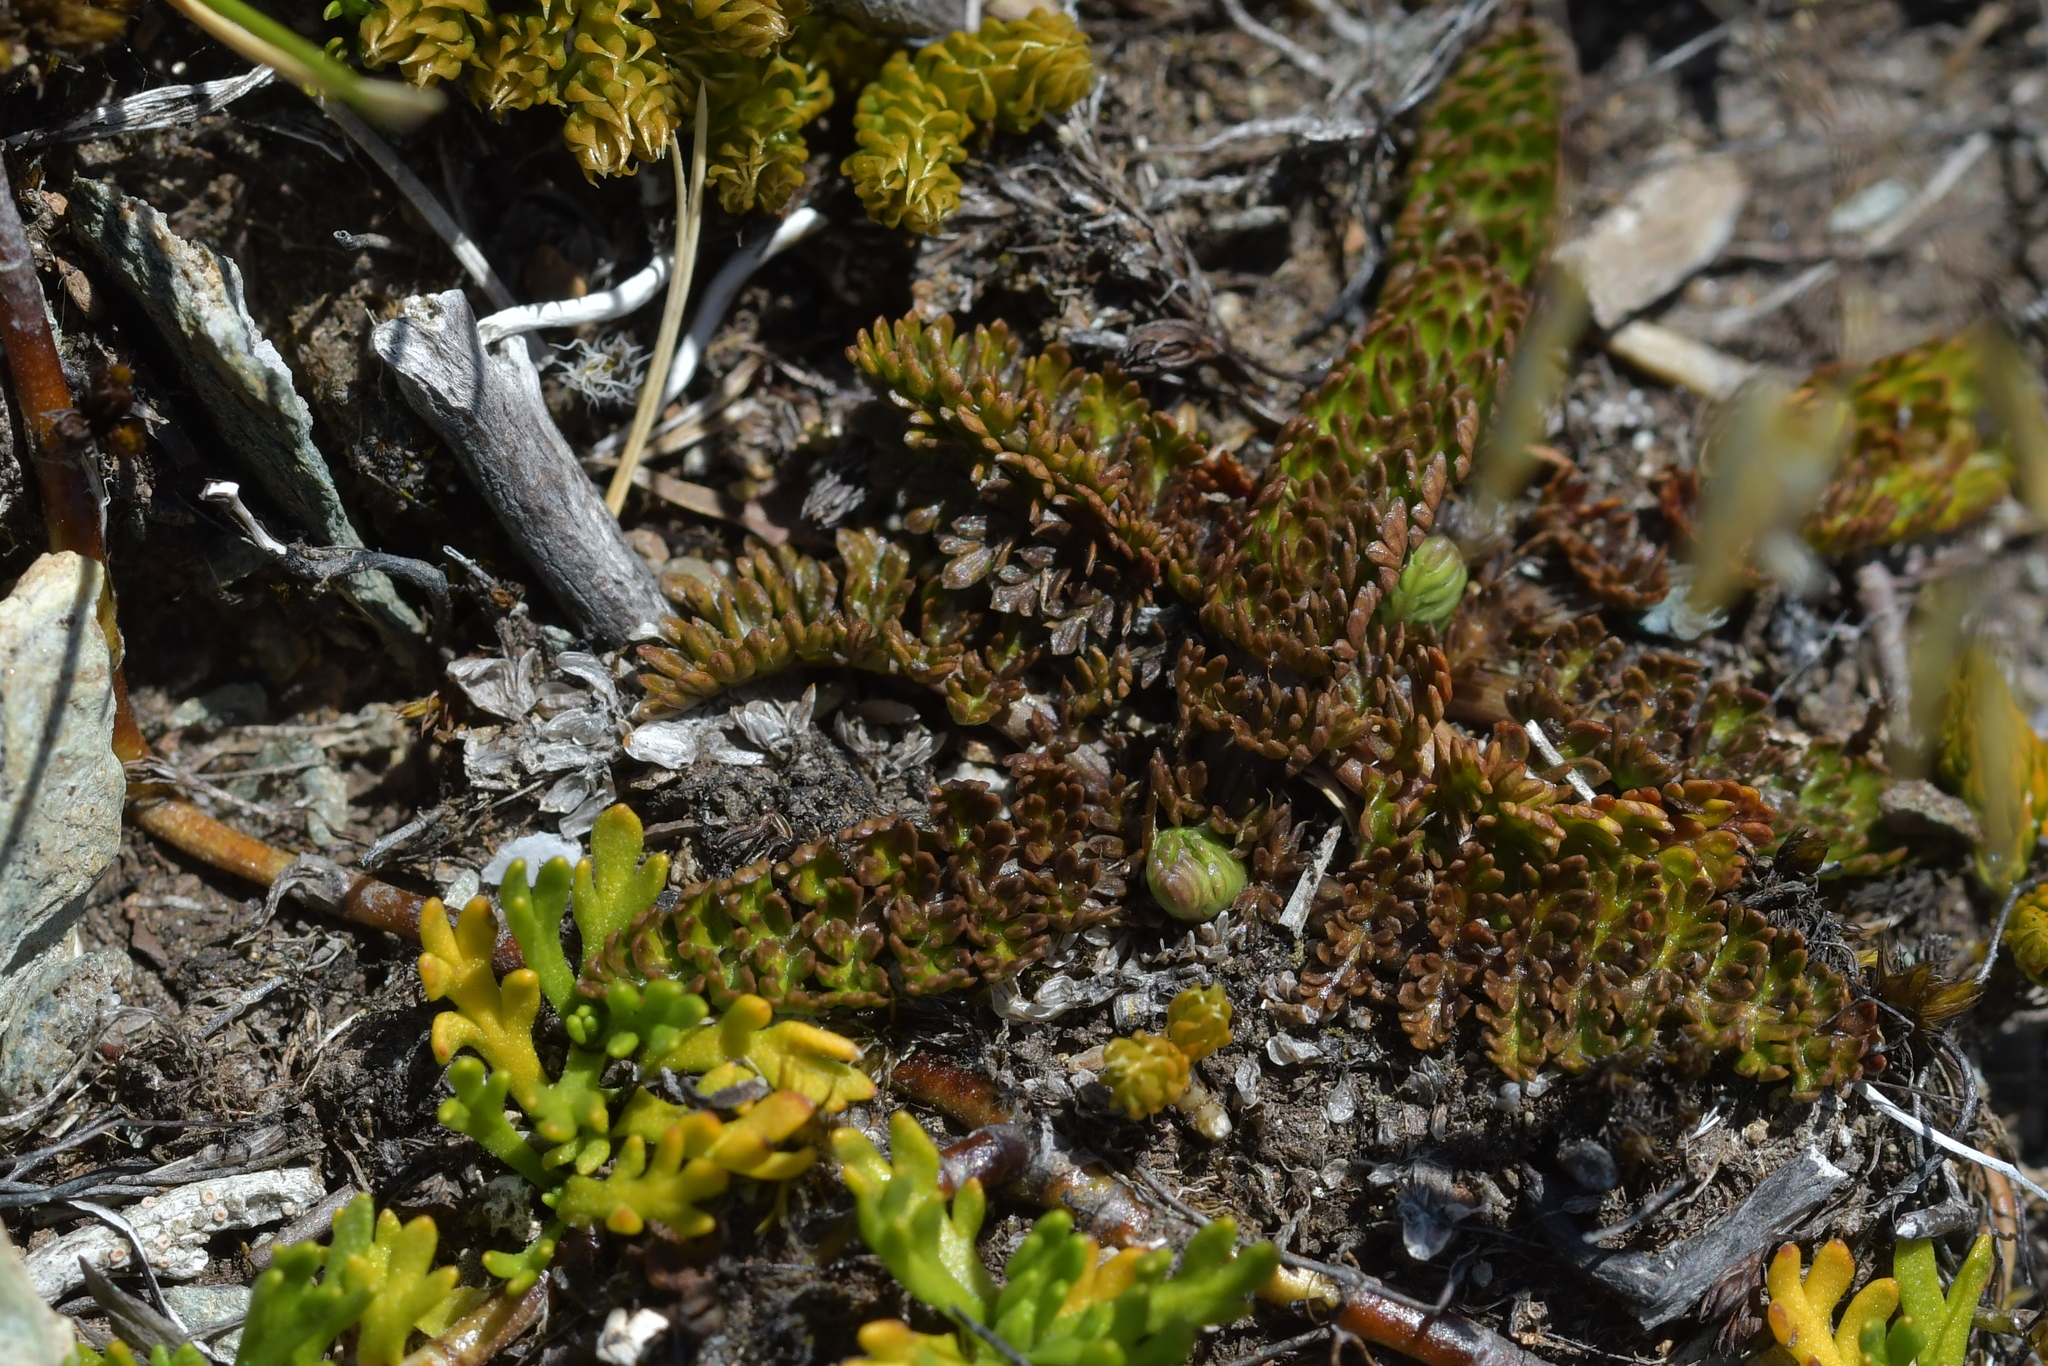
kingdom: Plantae
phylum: Tracheophyta
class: Magnoliopsida
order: Apiales
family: Apiaceae
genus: Anisotome
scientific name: Anisotome flexuosa
